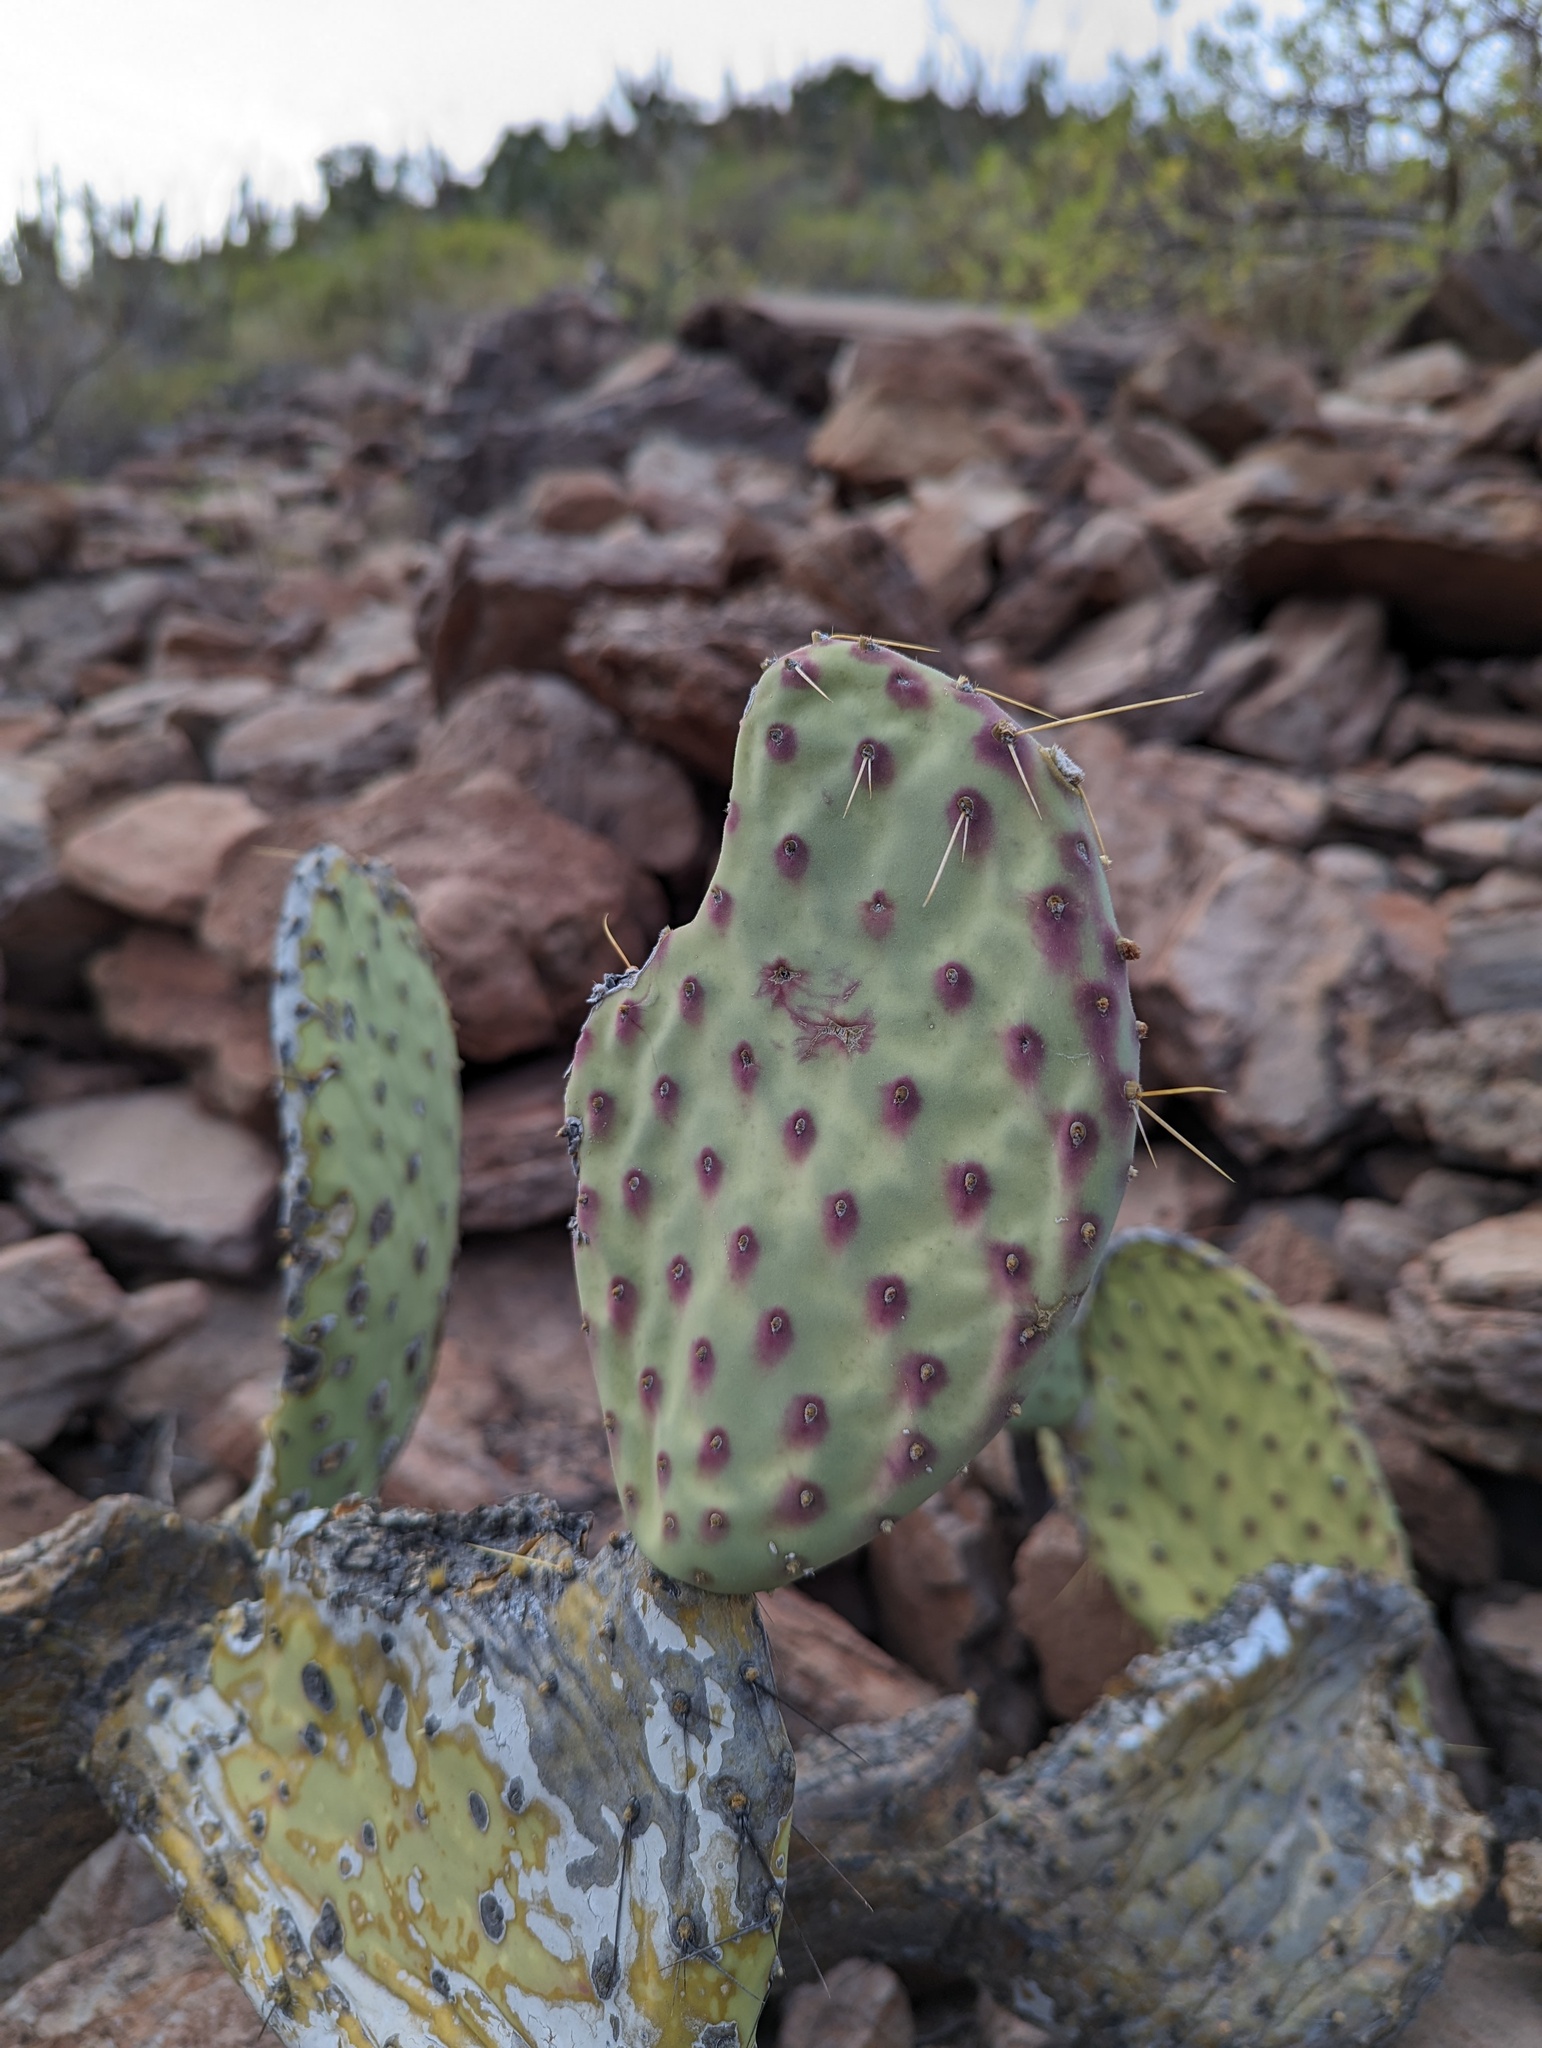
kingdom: Plantae
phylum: Tracheophyta
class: Magnoliopsida
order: Caryophyllales
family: Cactaceae
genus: Opuntia
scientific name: Opuntia tapona
